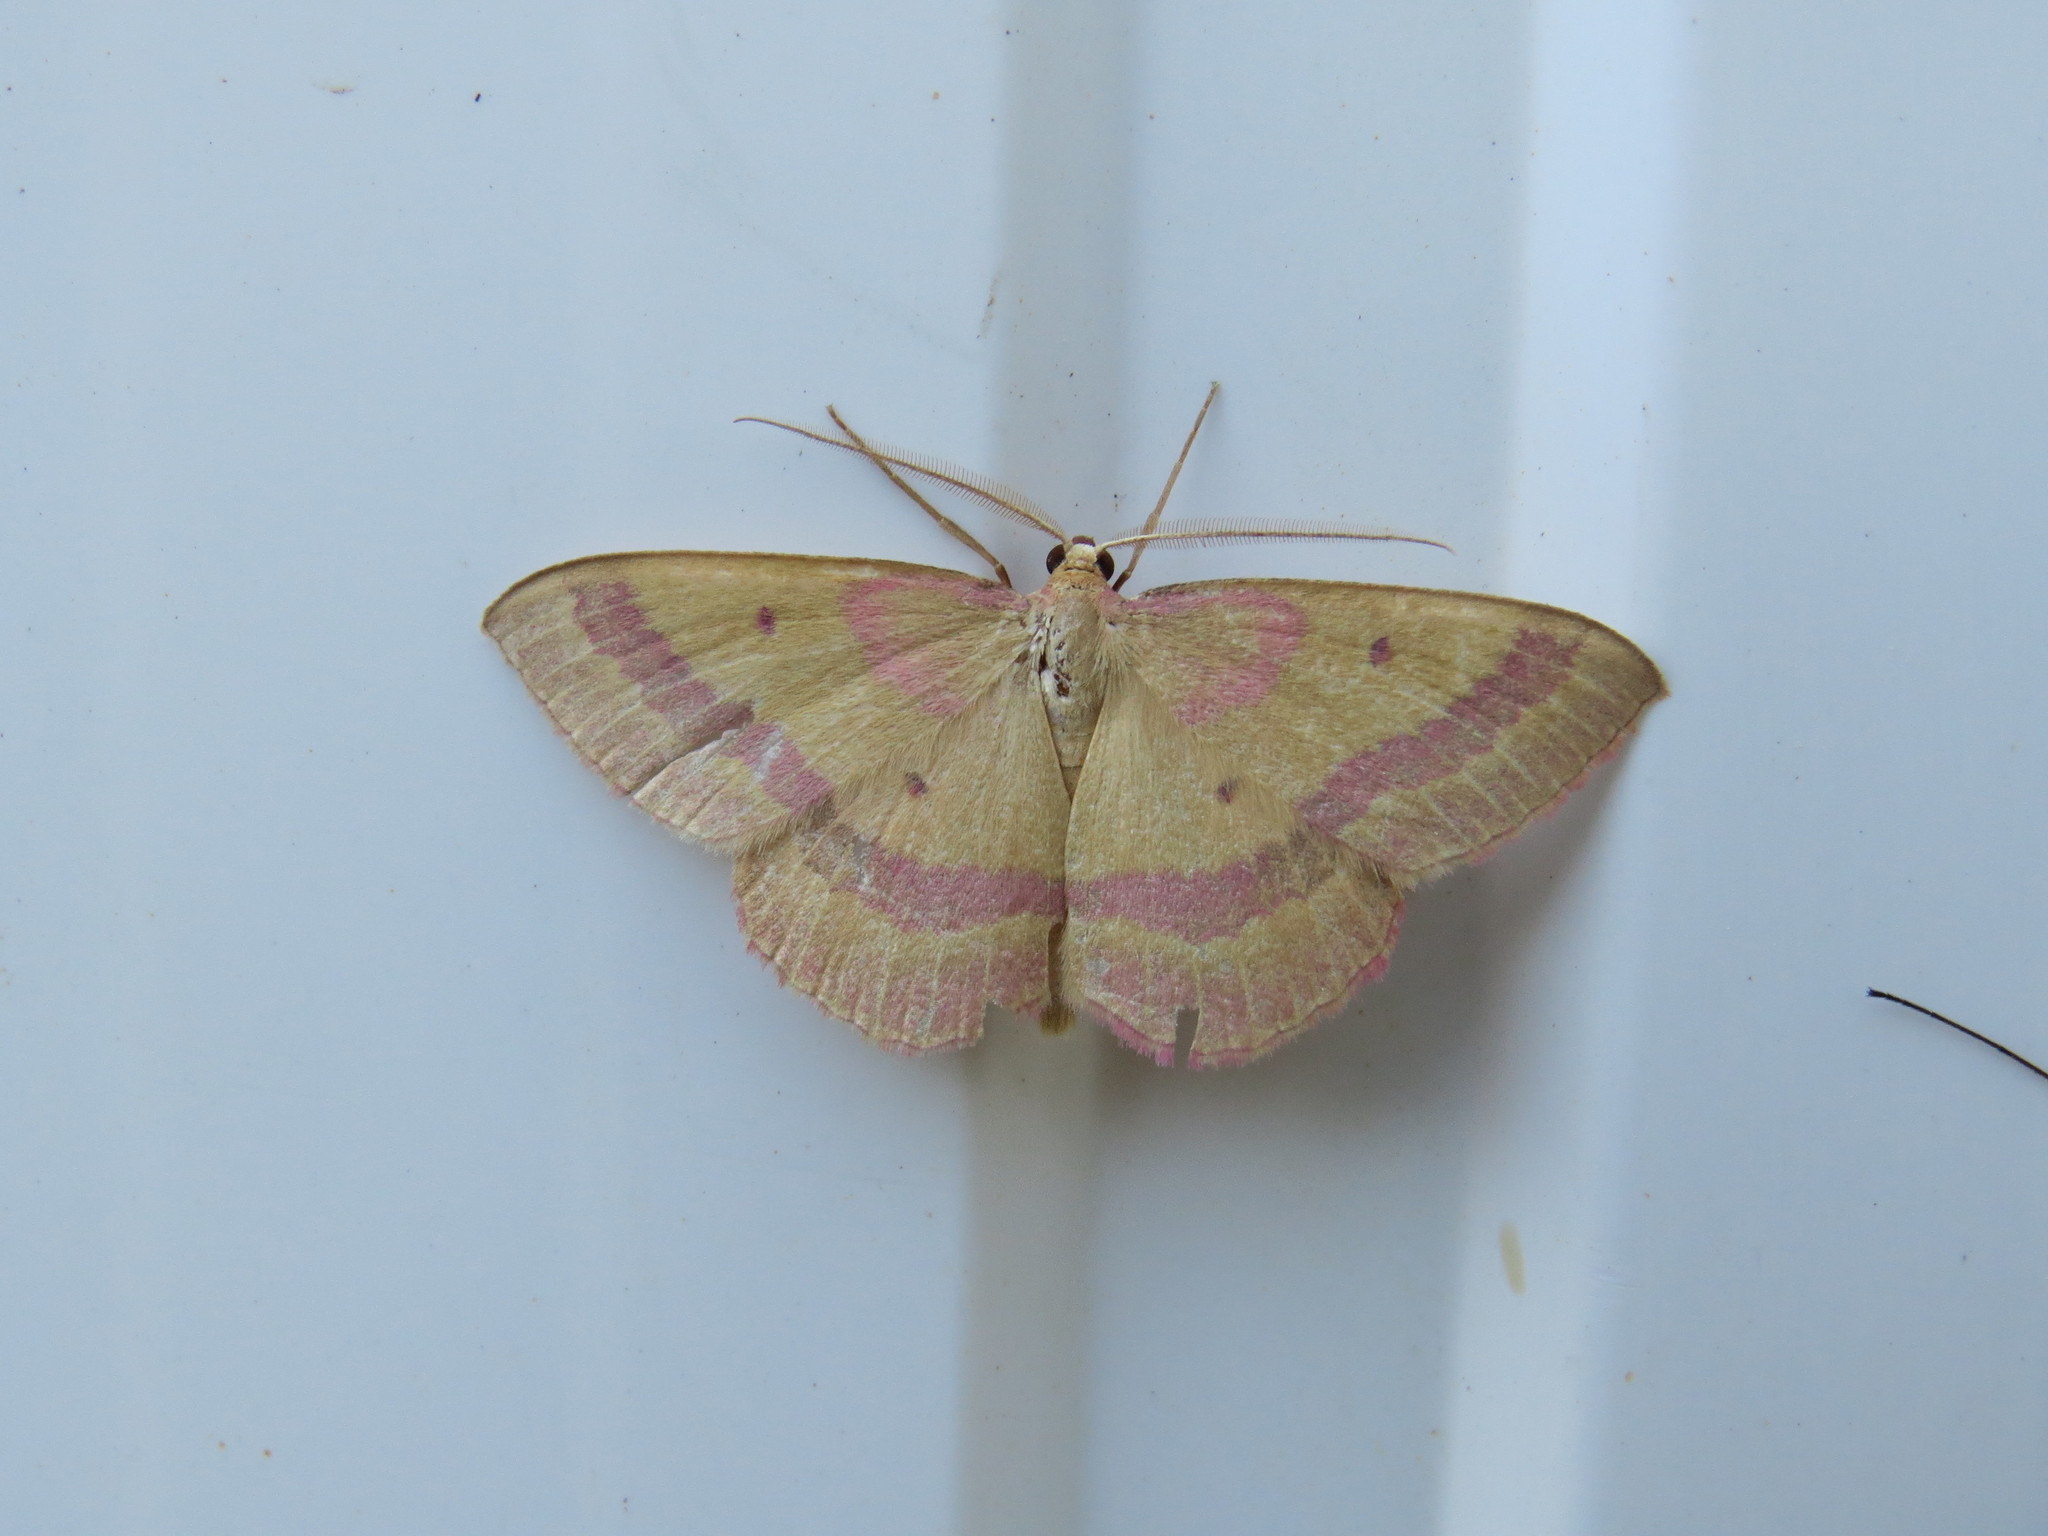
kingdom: Animalia
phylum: Arthropoda
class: Insecta
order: Lepidoptera
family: Geometridae
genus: Rhodostrophia
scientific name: Rhodostrophia tabidaria
